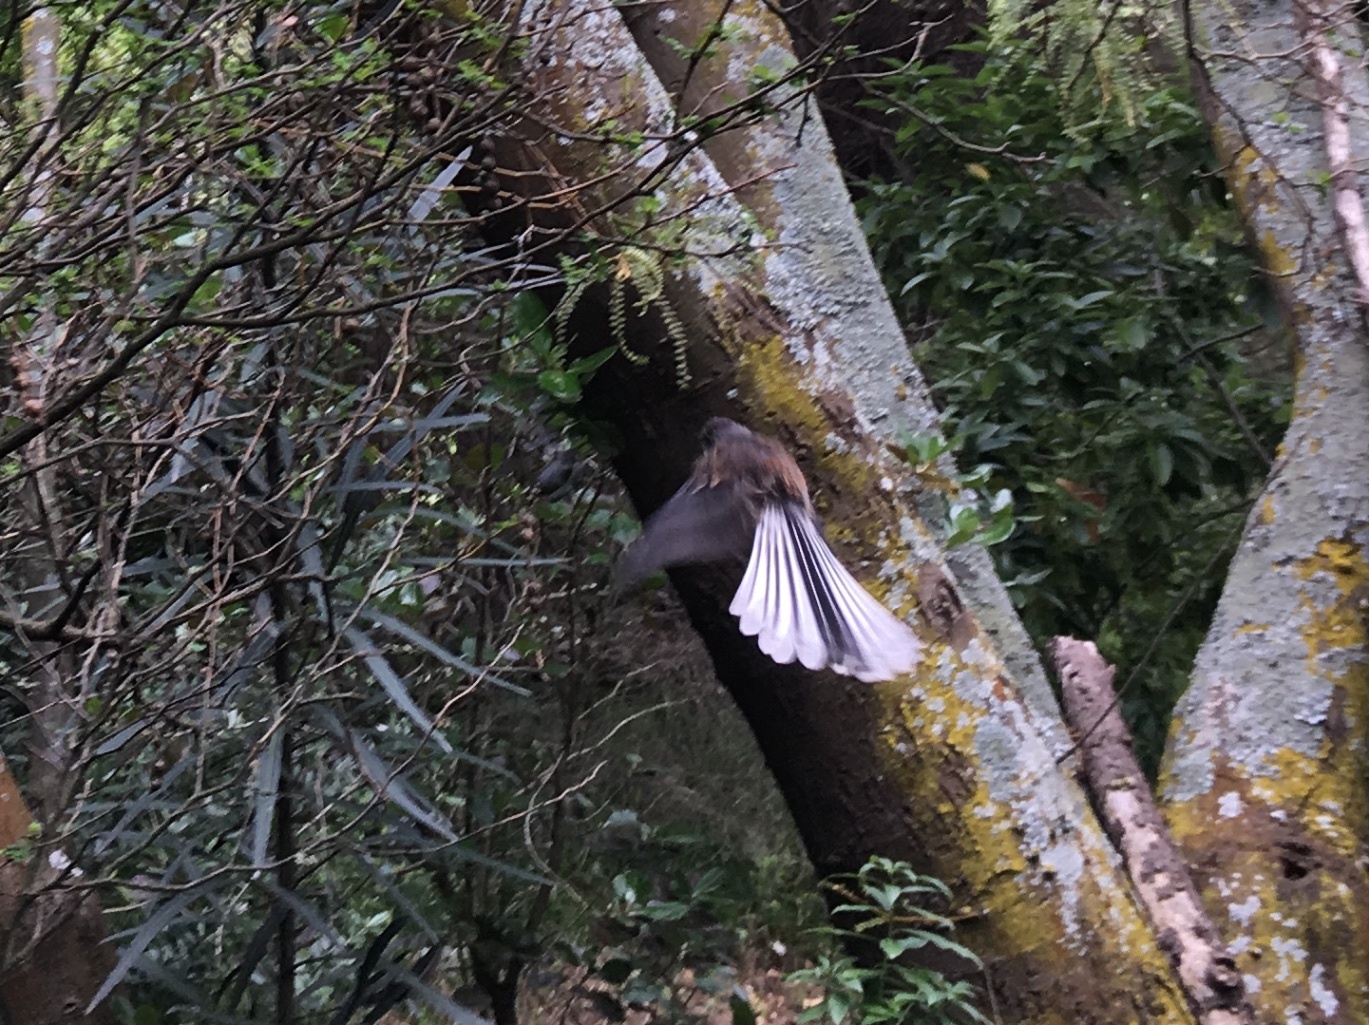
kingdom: Animalia
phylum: Chordata
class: Aves
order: Passeriformes
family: Rhipiduridae
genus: Rhipidura
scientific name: Rhipidura fuliginosa
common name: New zealand fantail
